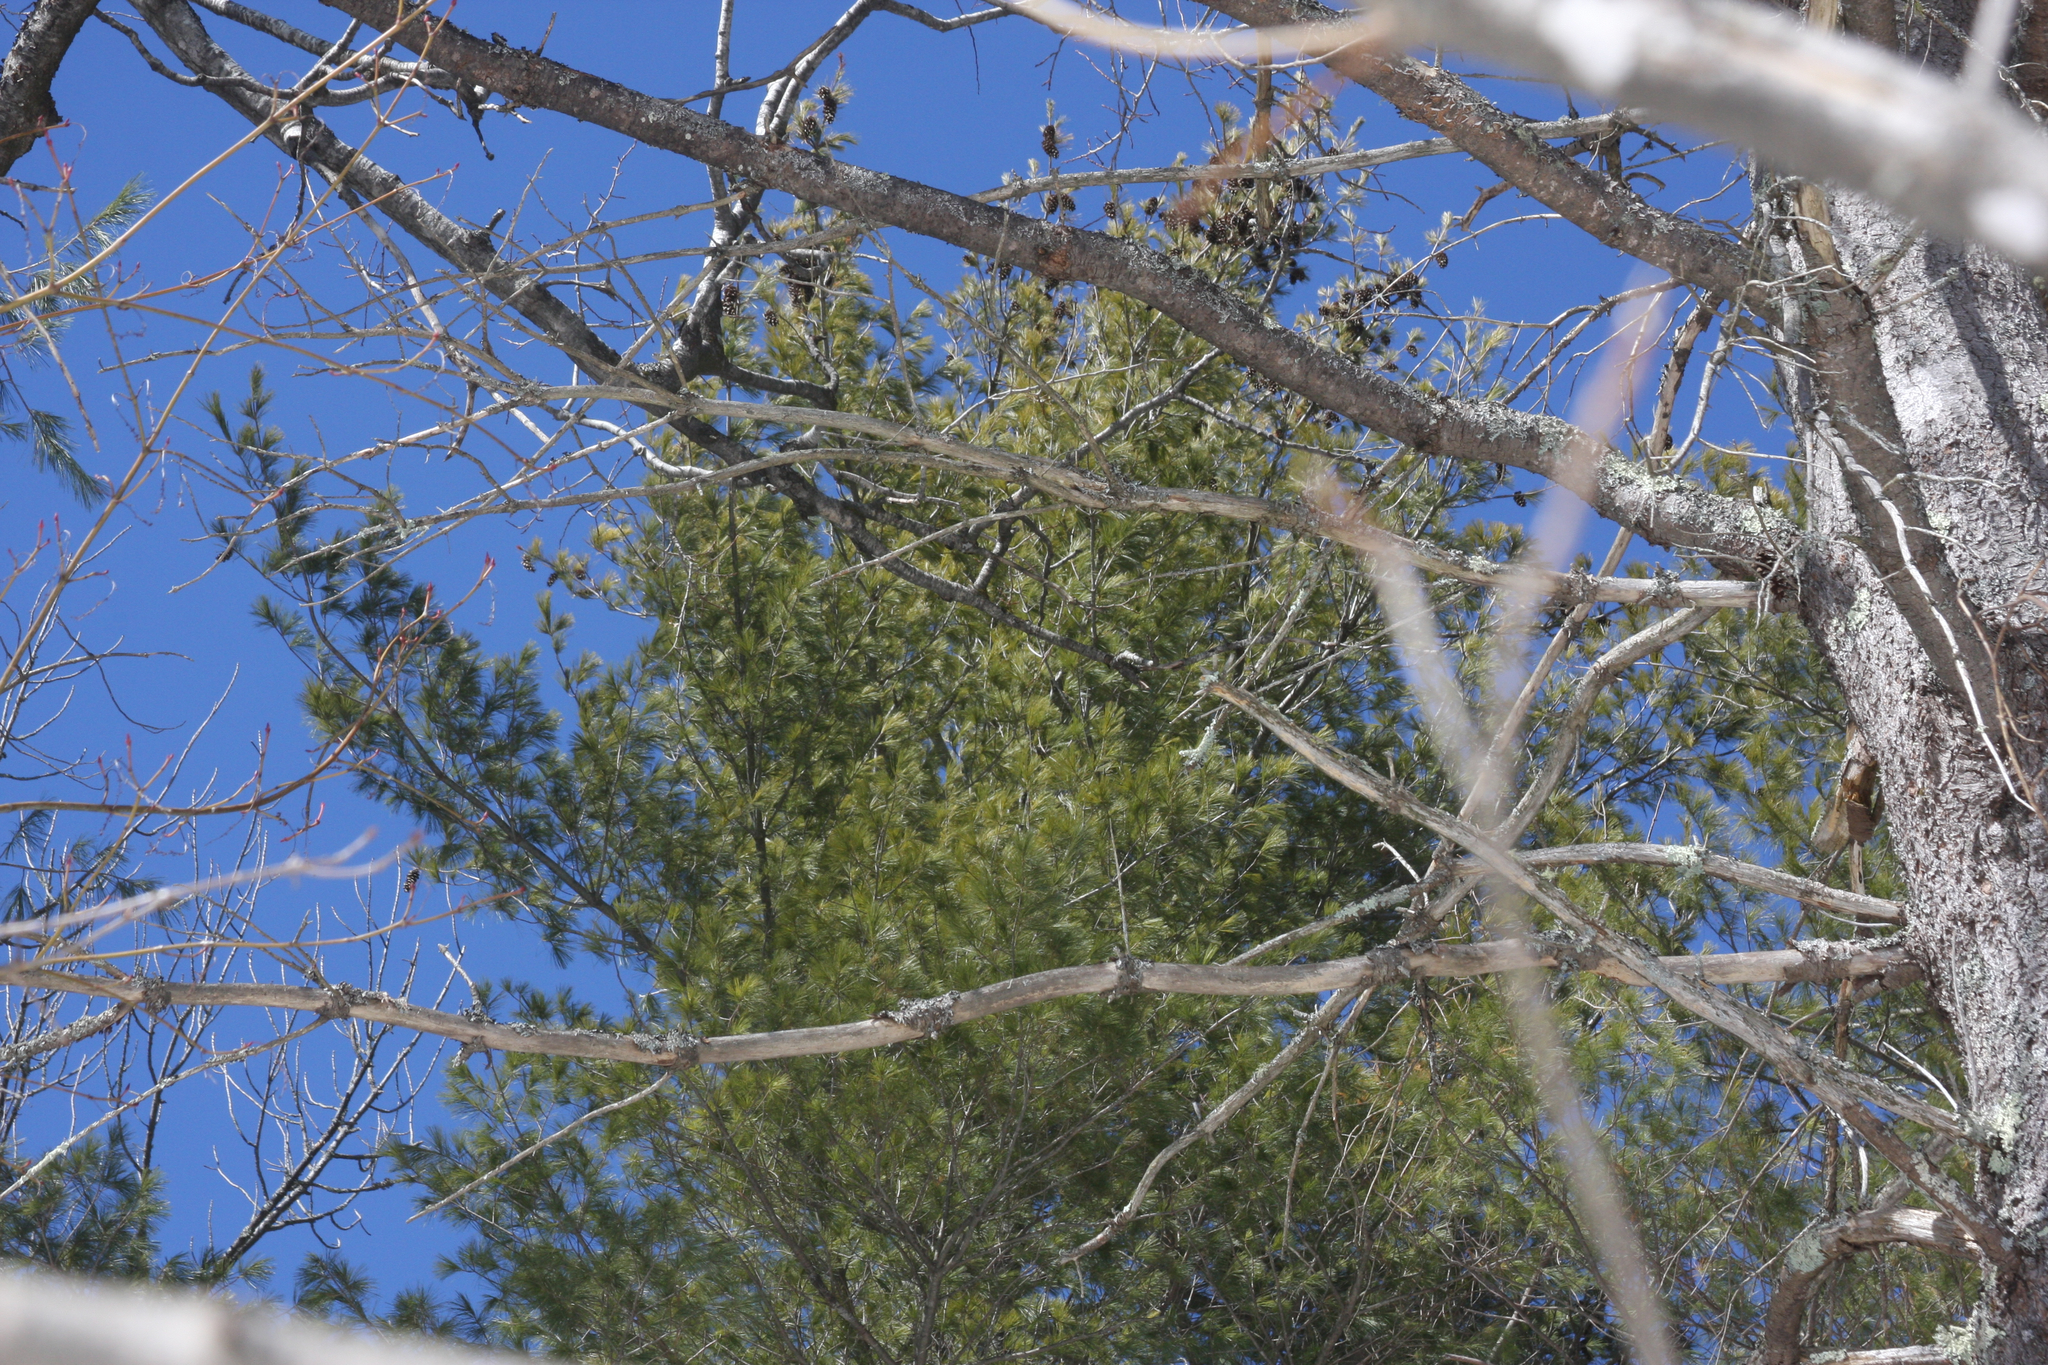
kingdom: Plantae
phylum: Tracheophyta
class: Pinopsida
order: Pinales
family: Pinaceae
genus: Pinus
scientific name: Pinus strobus
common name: Weymouth pine
